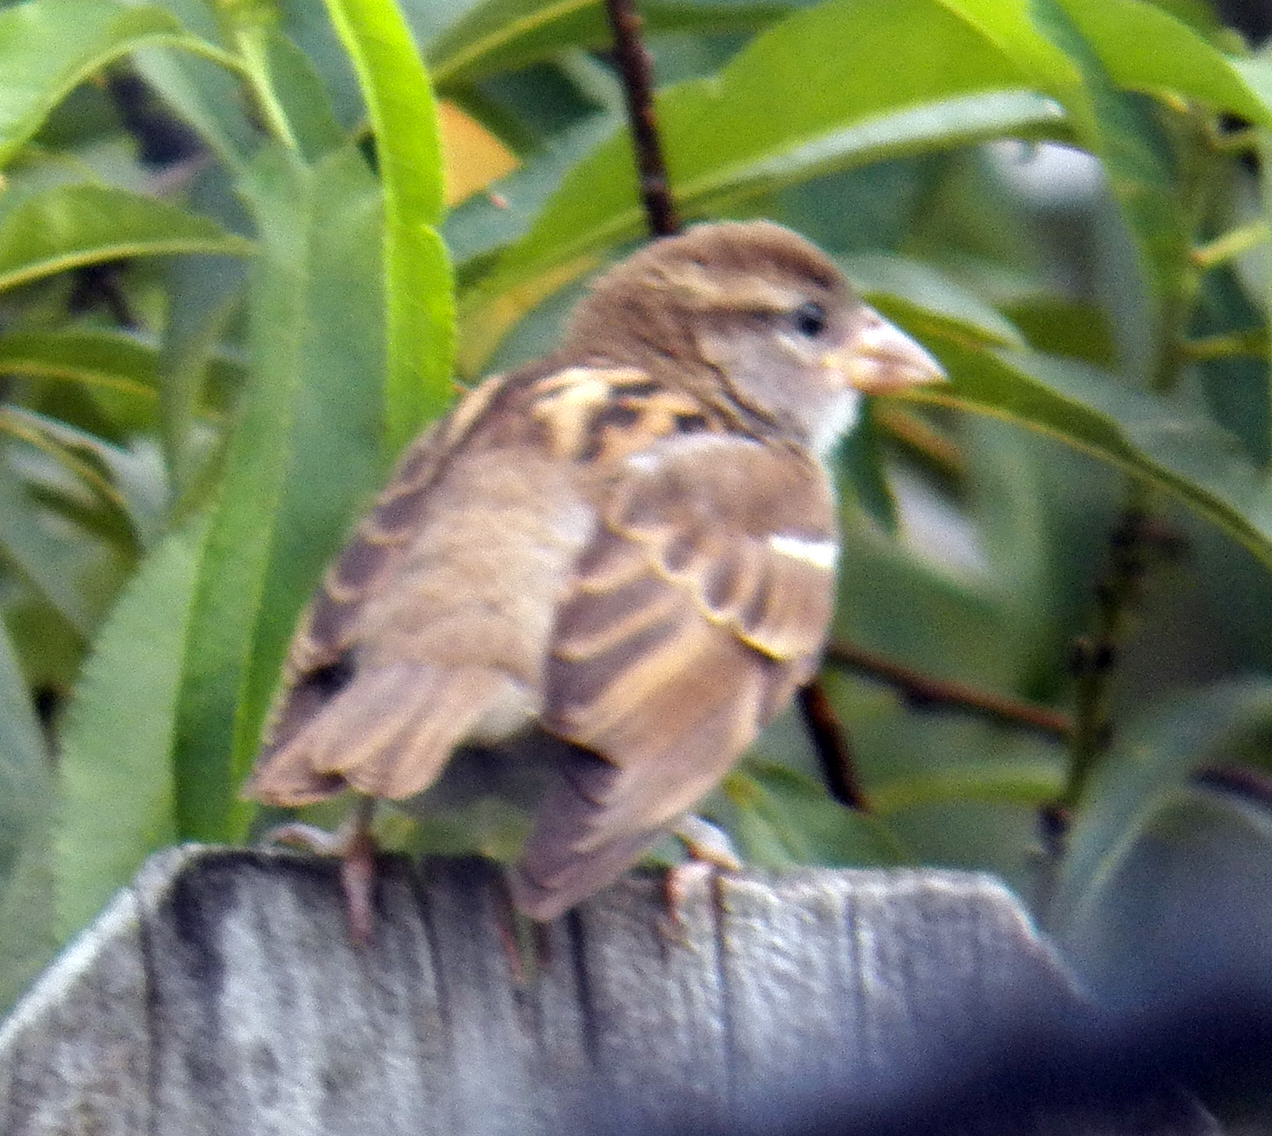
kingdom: Animalia
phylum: Chordata
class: Aves
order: Passeriformes
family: Passeridae
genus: Passer
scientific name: Passer domesticus
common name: House sparrow
